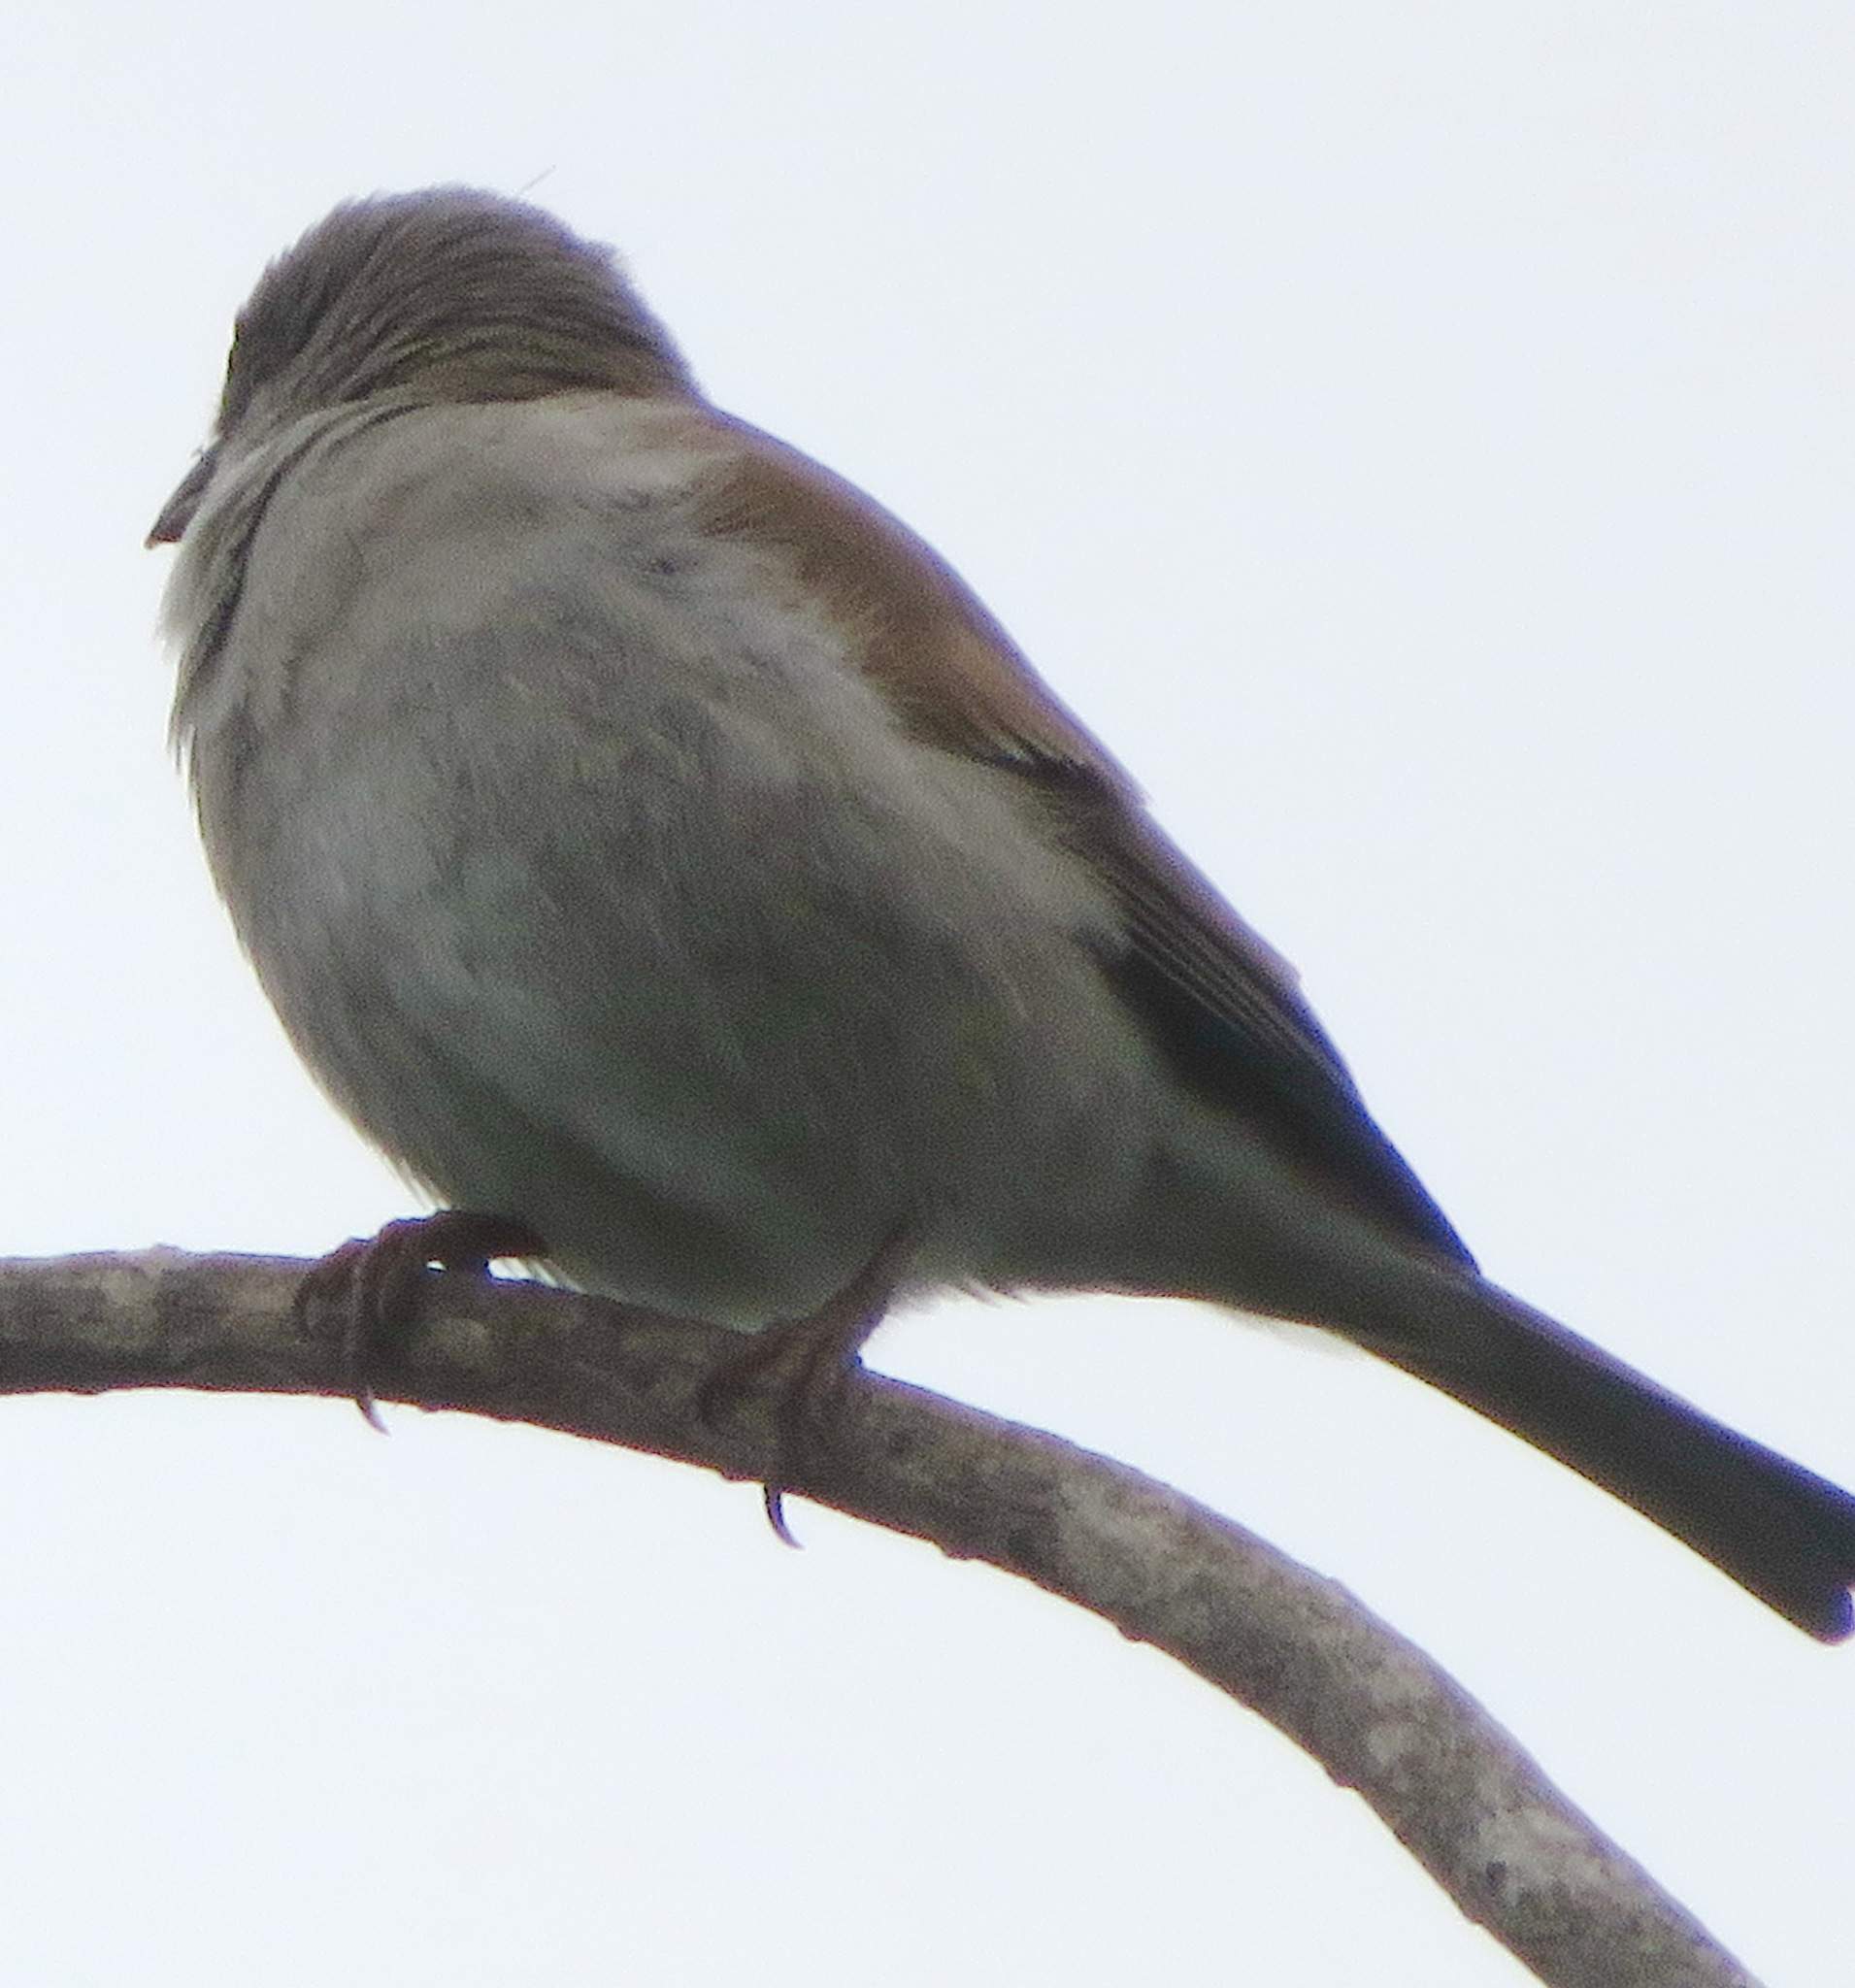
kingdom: Animalia
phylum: Chordata
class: Aves
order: Passeriformes
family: Passeridae
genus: Passer
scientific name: Passer diffusus
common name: Southern grey-headed sparrow
